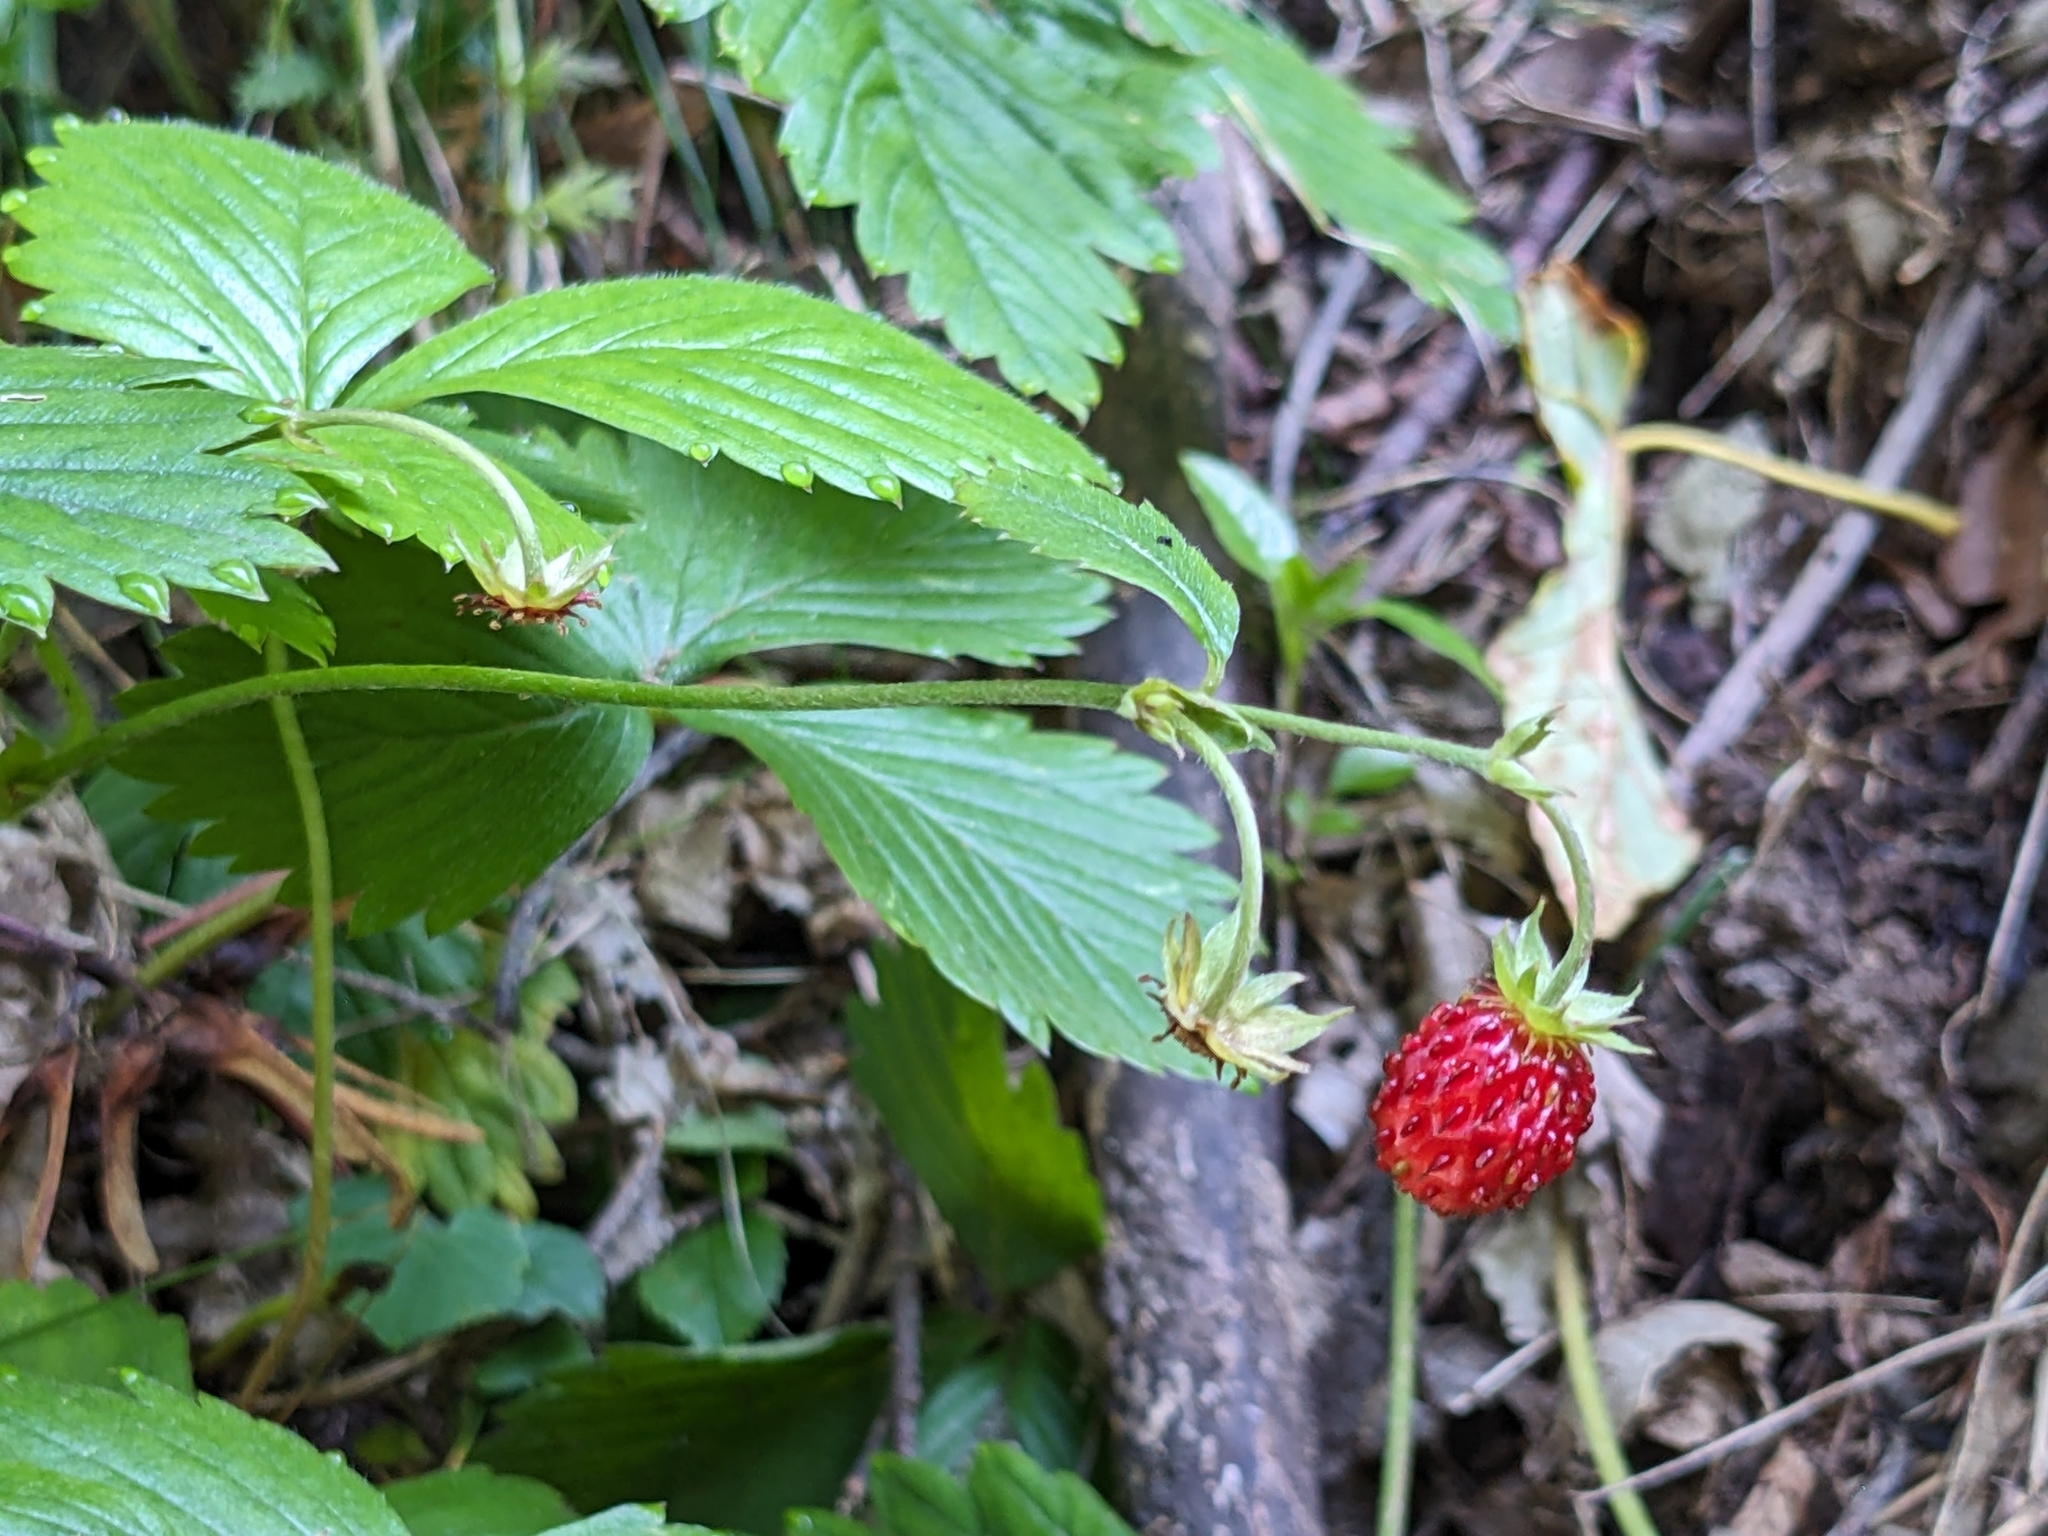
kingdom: Plantae
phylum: Tracheophyta
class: Magnoliopsida
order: Rosales
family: Rosaceae
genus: Fragaria
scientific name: Fragaria vesca
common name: Wild strawberry
